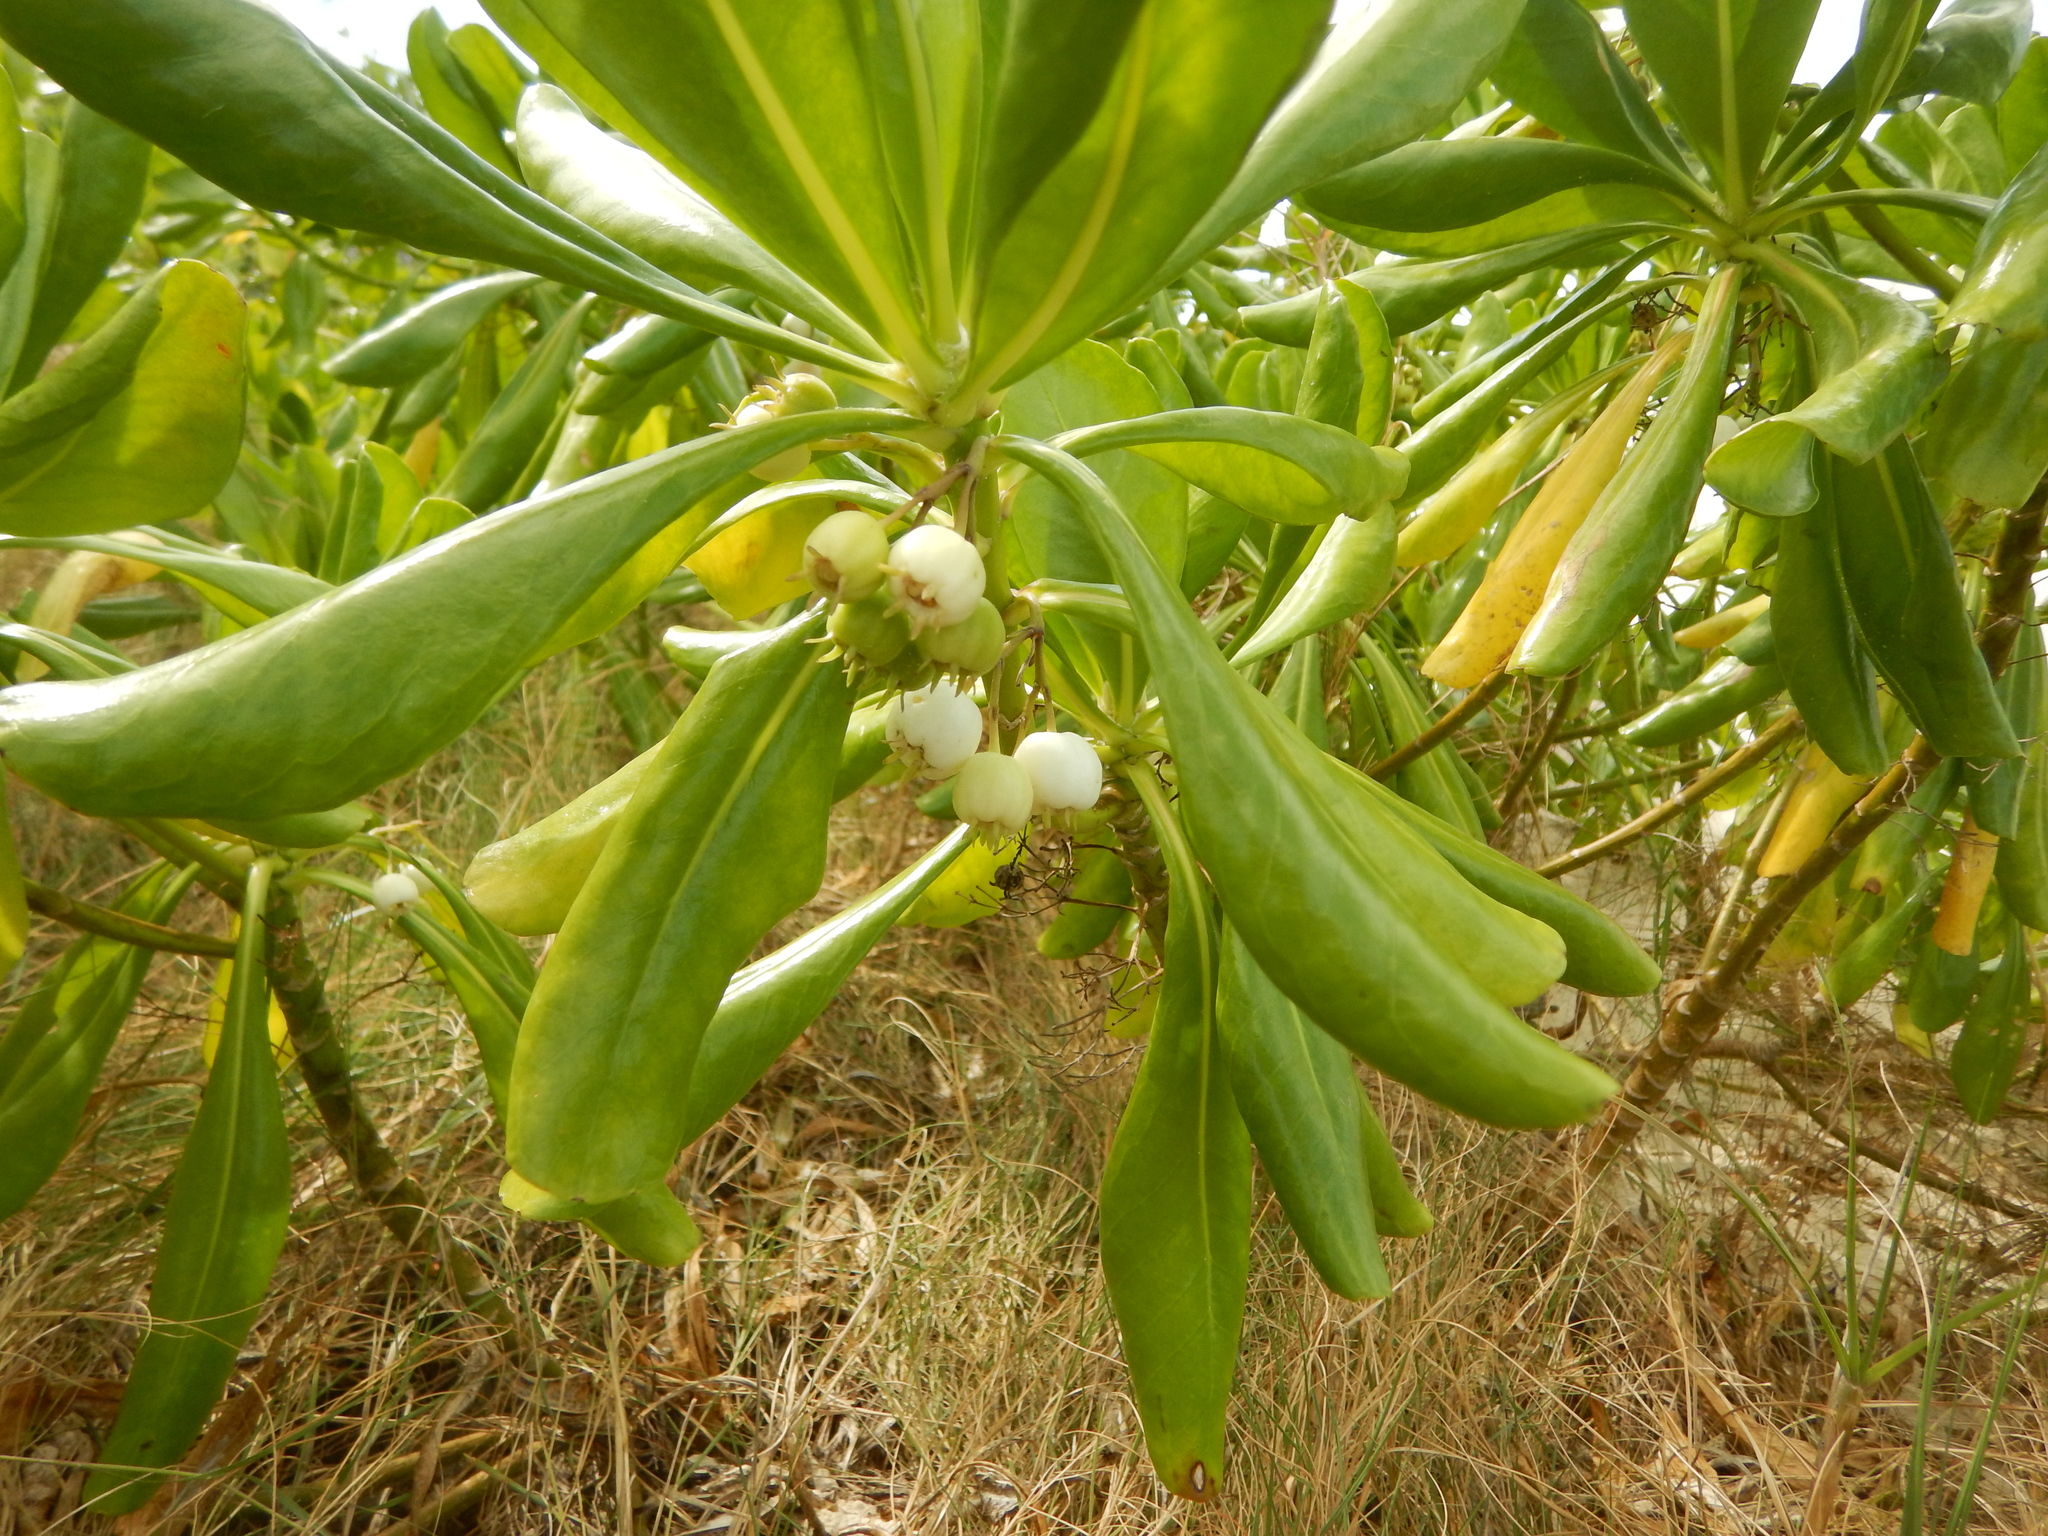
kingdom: Plantae
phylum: Tracheophyta
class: Magnoliopsida
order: Asterales
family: Goodeniaceae
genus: Scaevola
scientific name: Scaevola taccada
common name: Sea lettucetree
